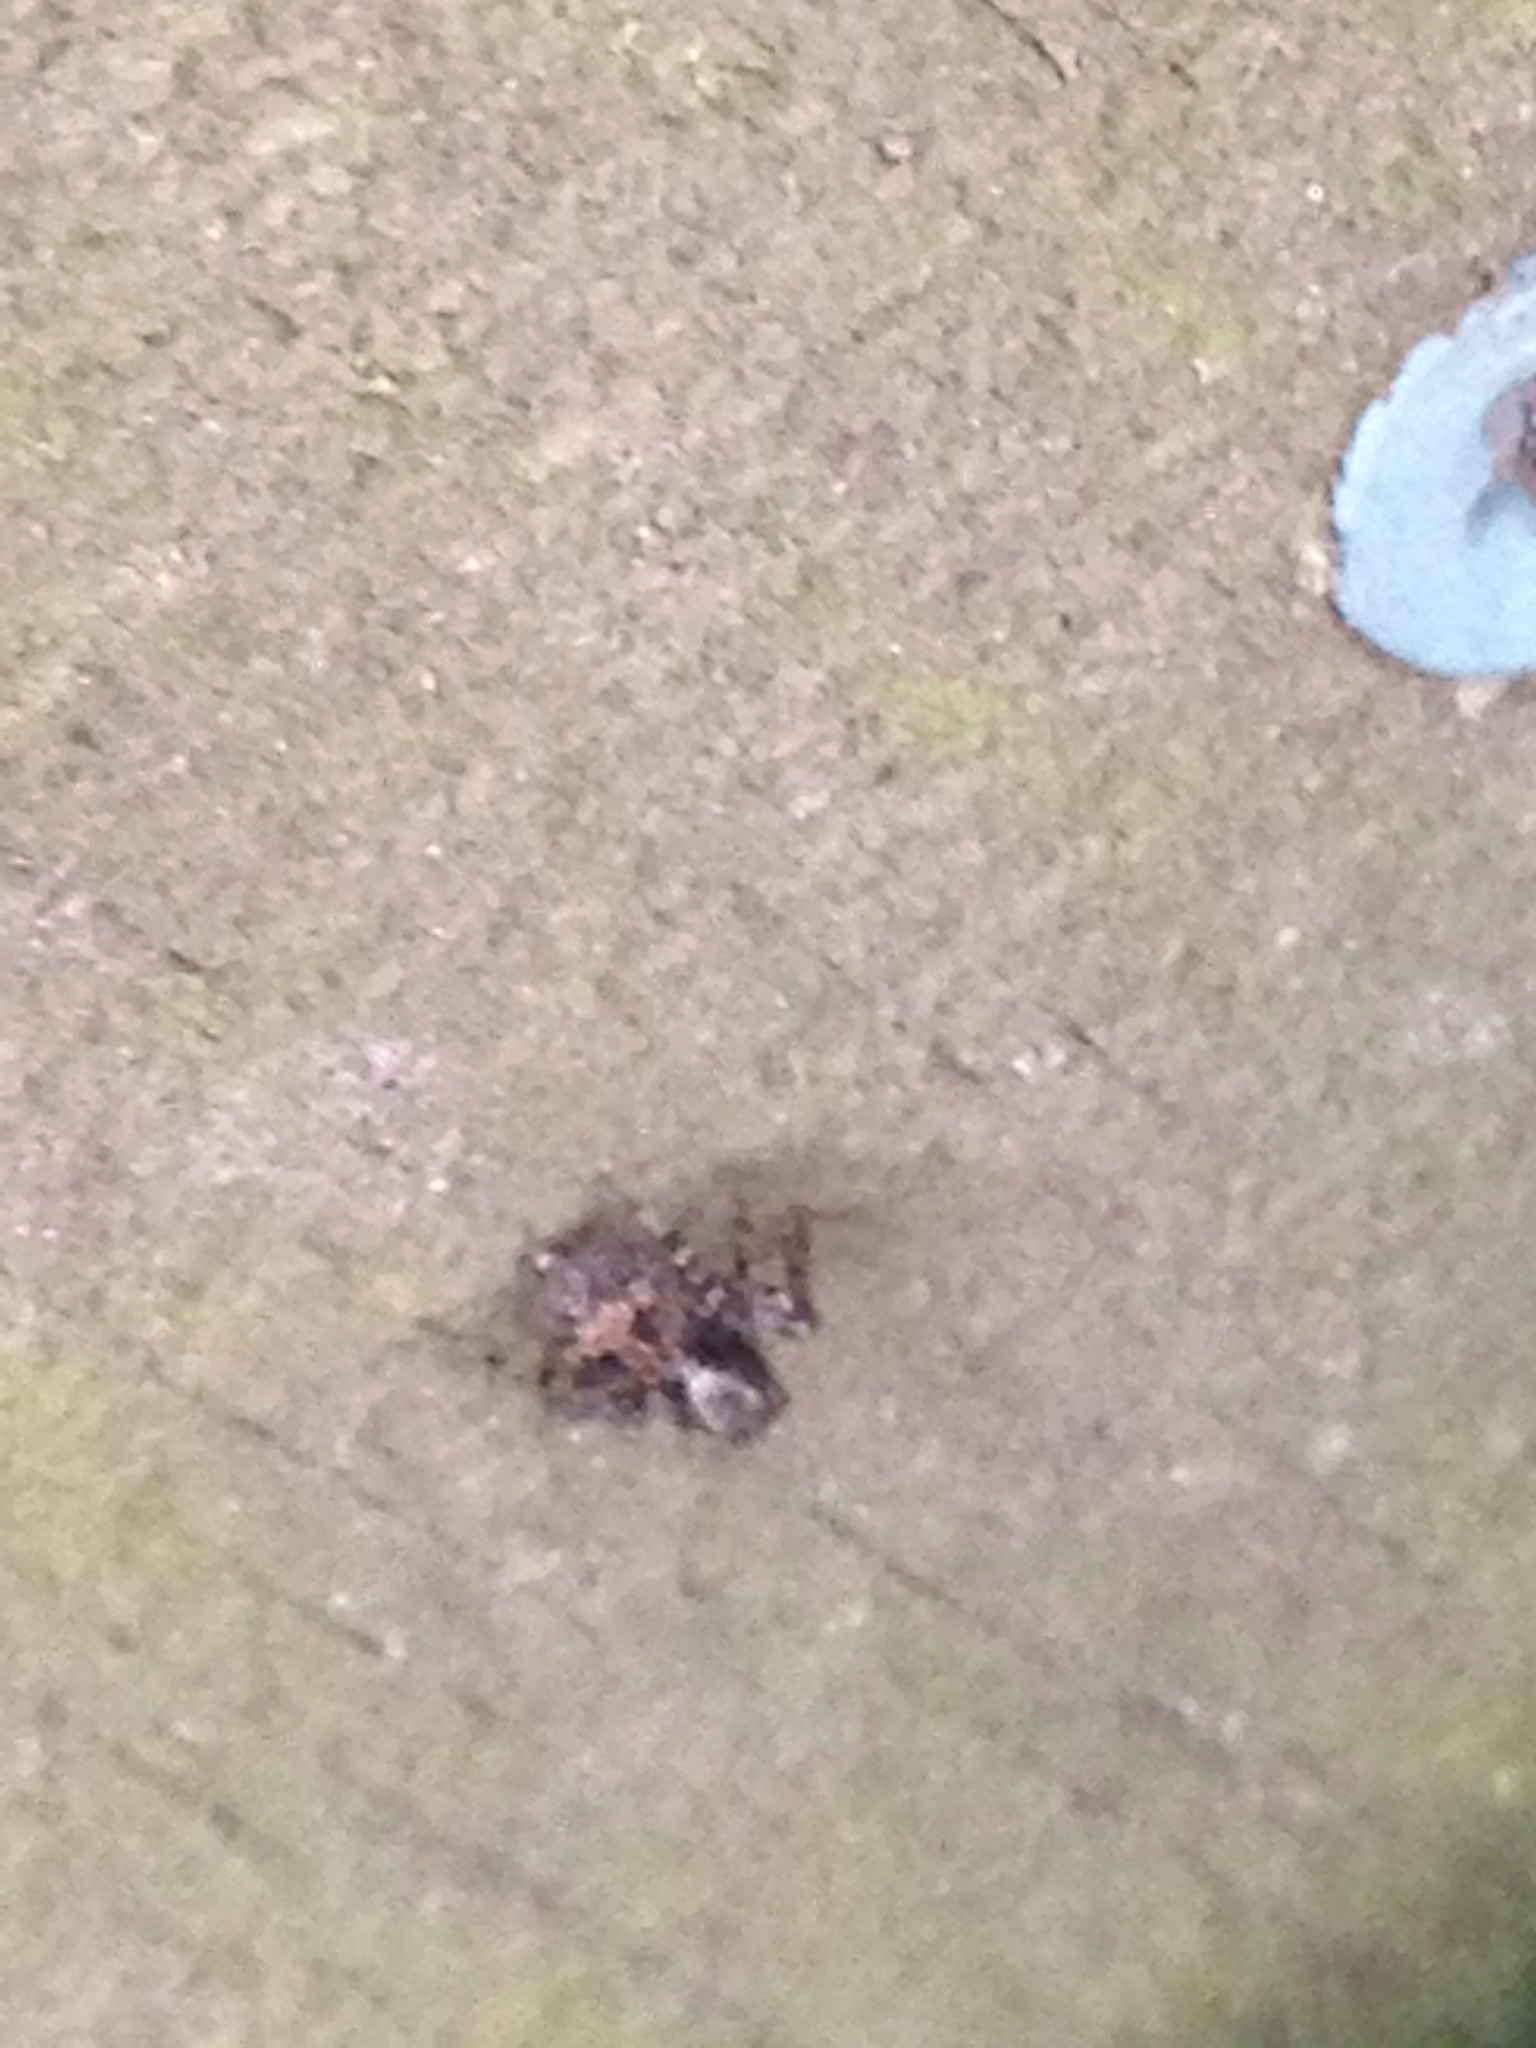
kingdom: Animalia
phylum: Arthropoda
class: Arachnida
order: Araneae
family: Salticidae
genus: Naphrys
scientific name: Naphrys pulex
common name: Flea jumping spider
